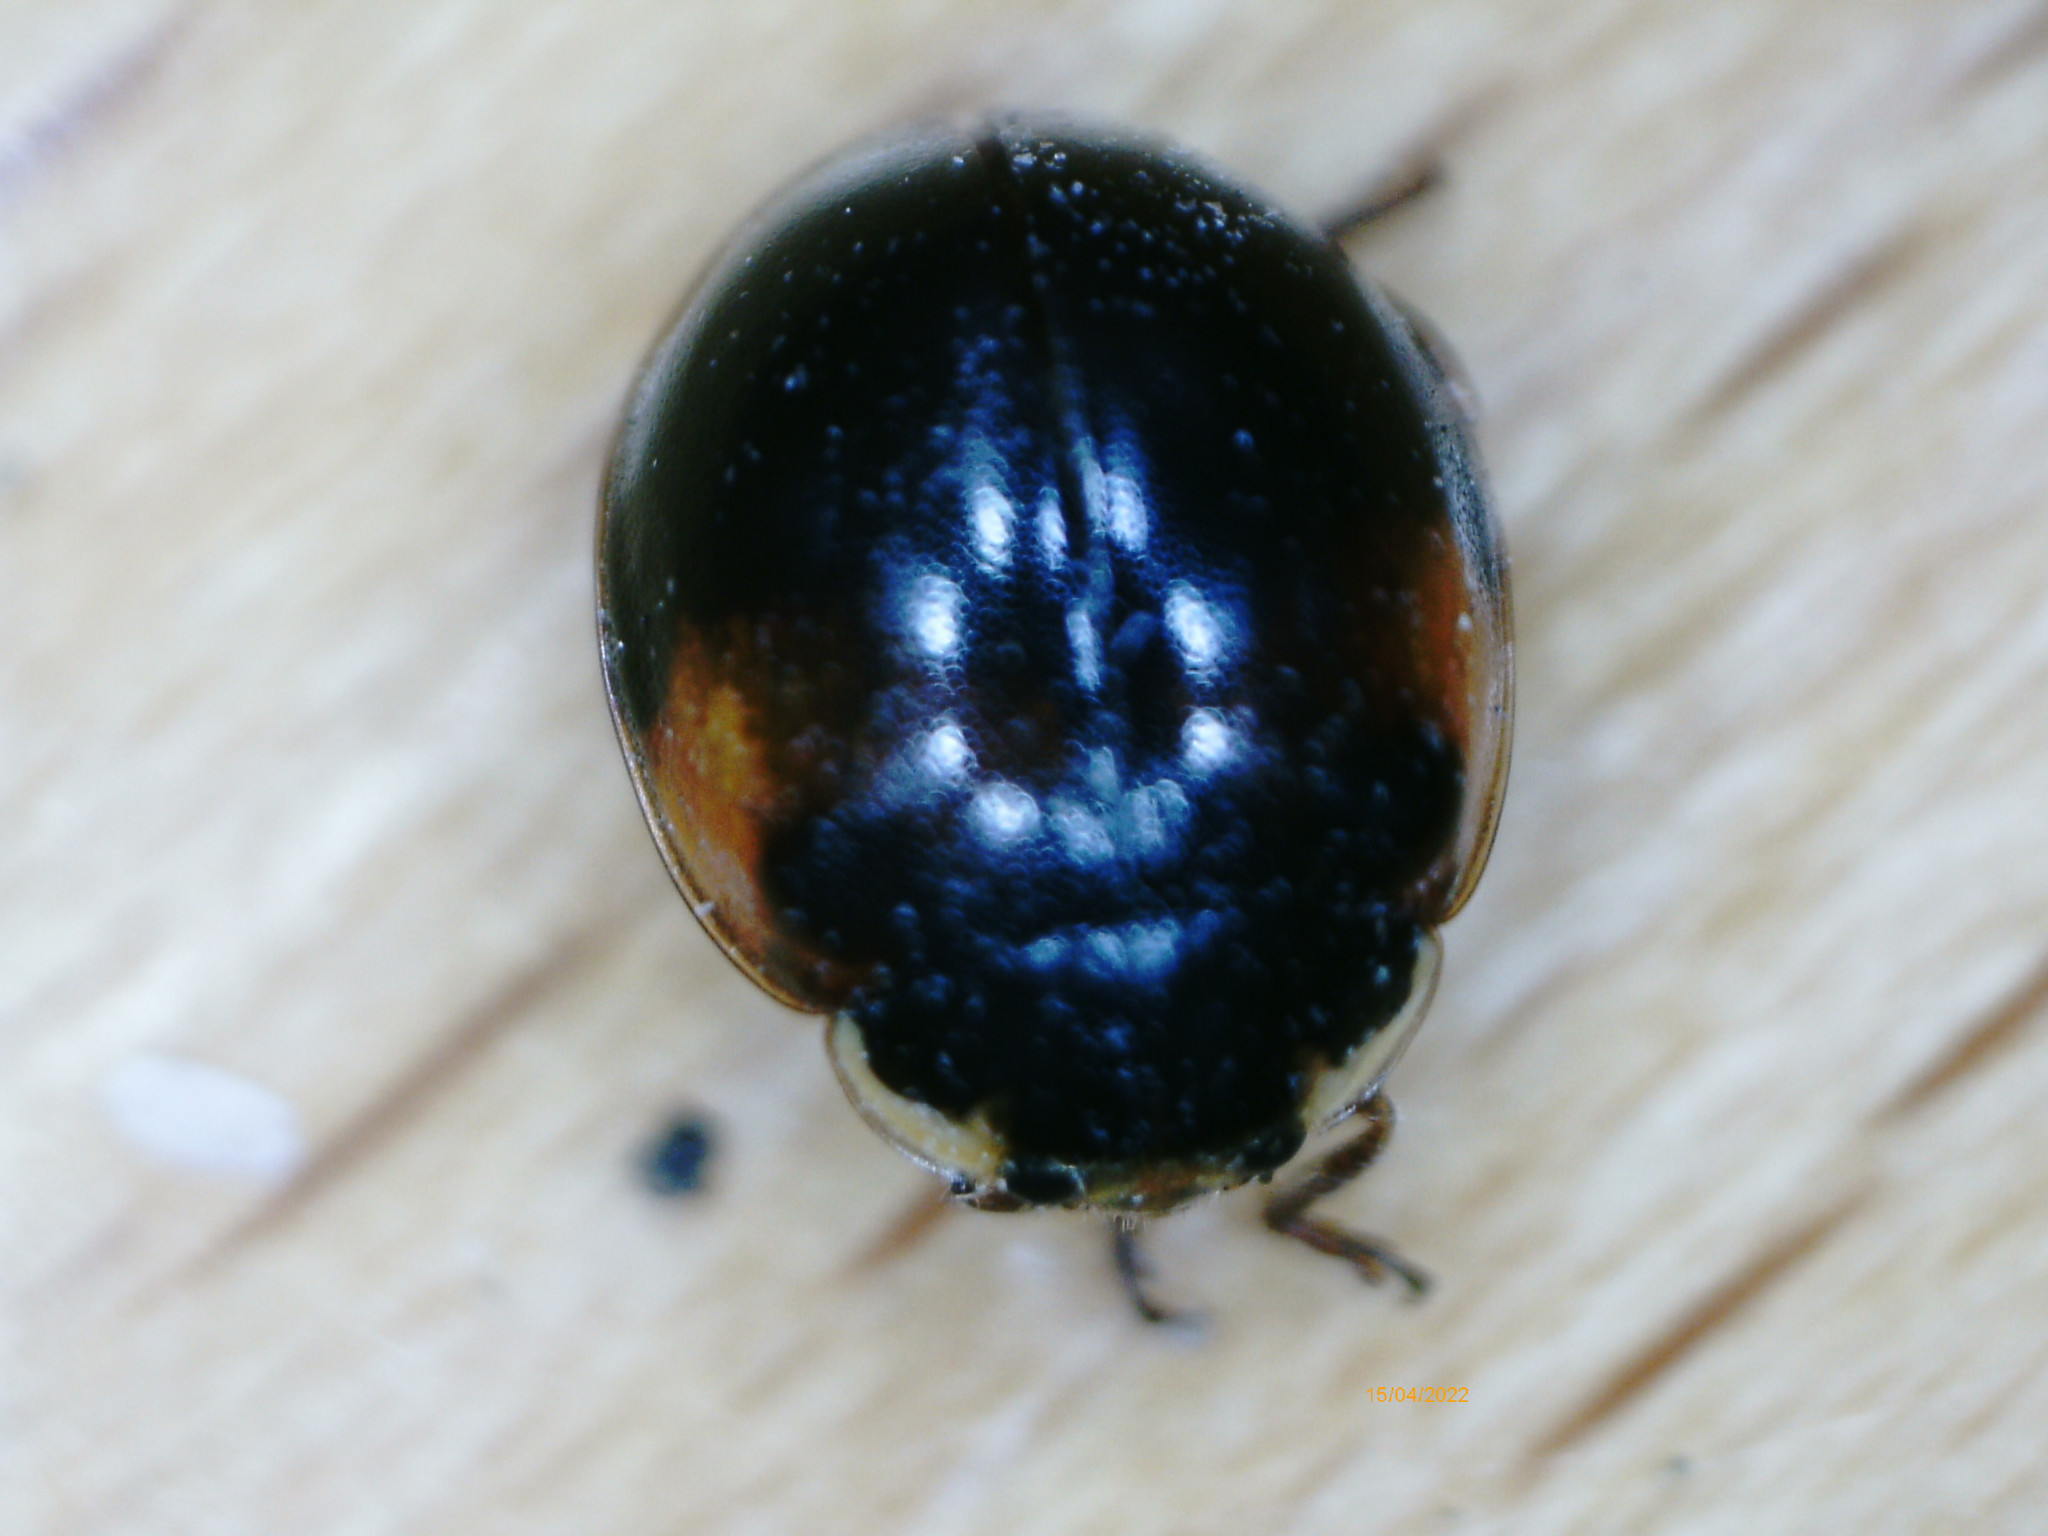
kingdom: Animalia
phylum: Arthropoda
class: Insecta
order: Coleoptera
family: Coccinellidae
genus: Adalia
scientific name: Adalia decempunctata
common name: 10-spot ladybird
